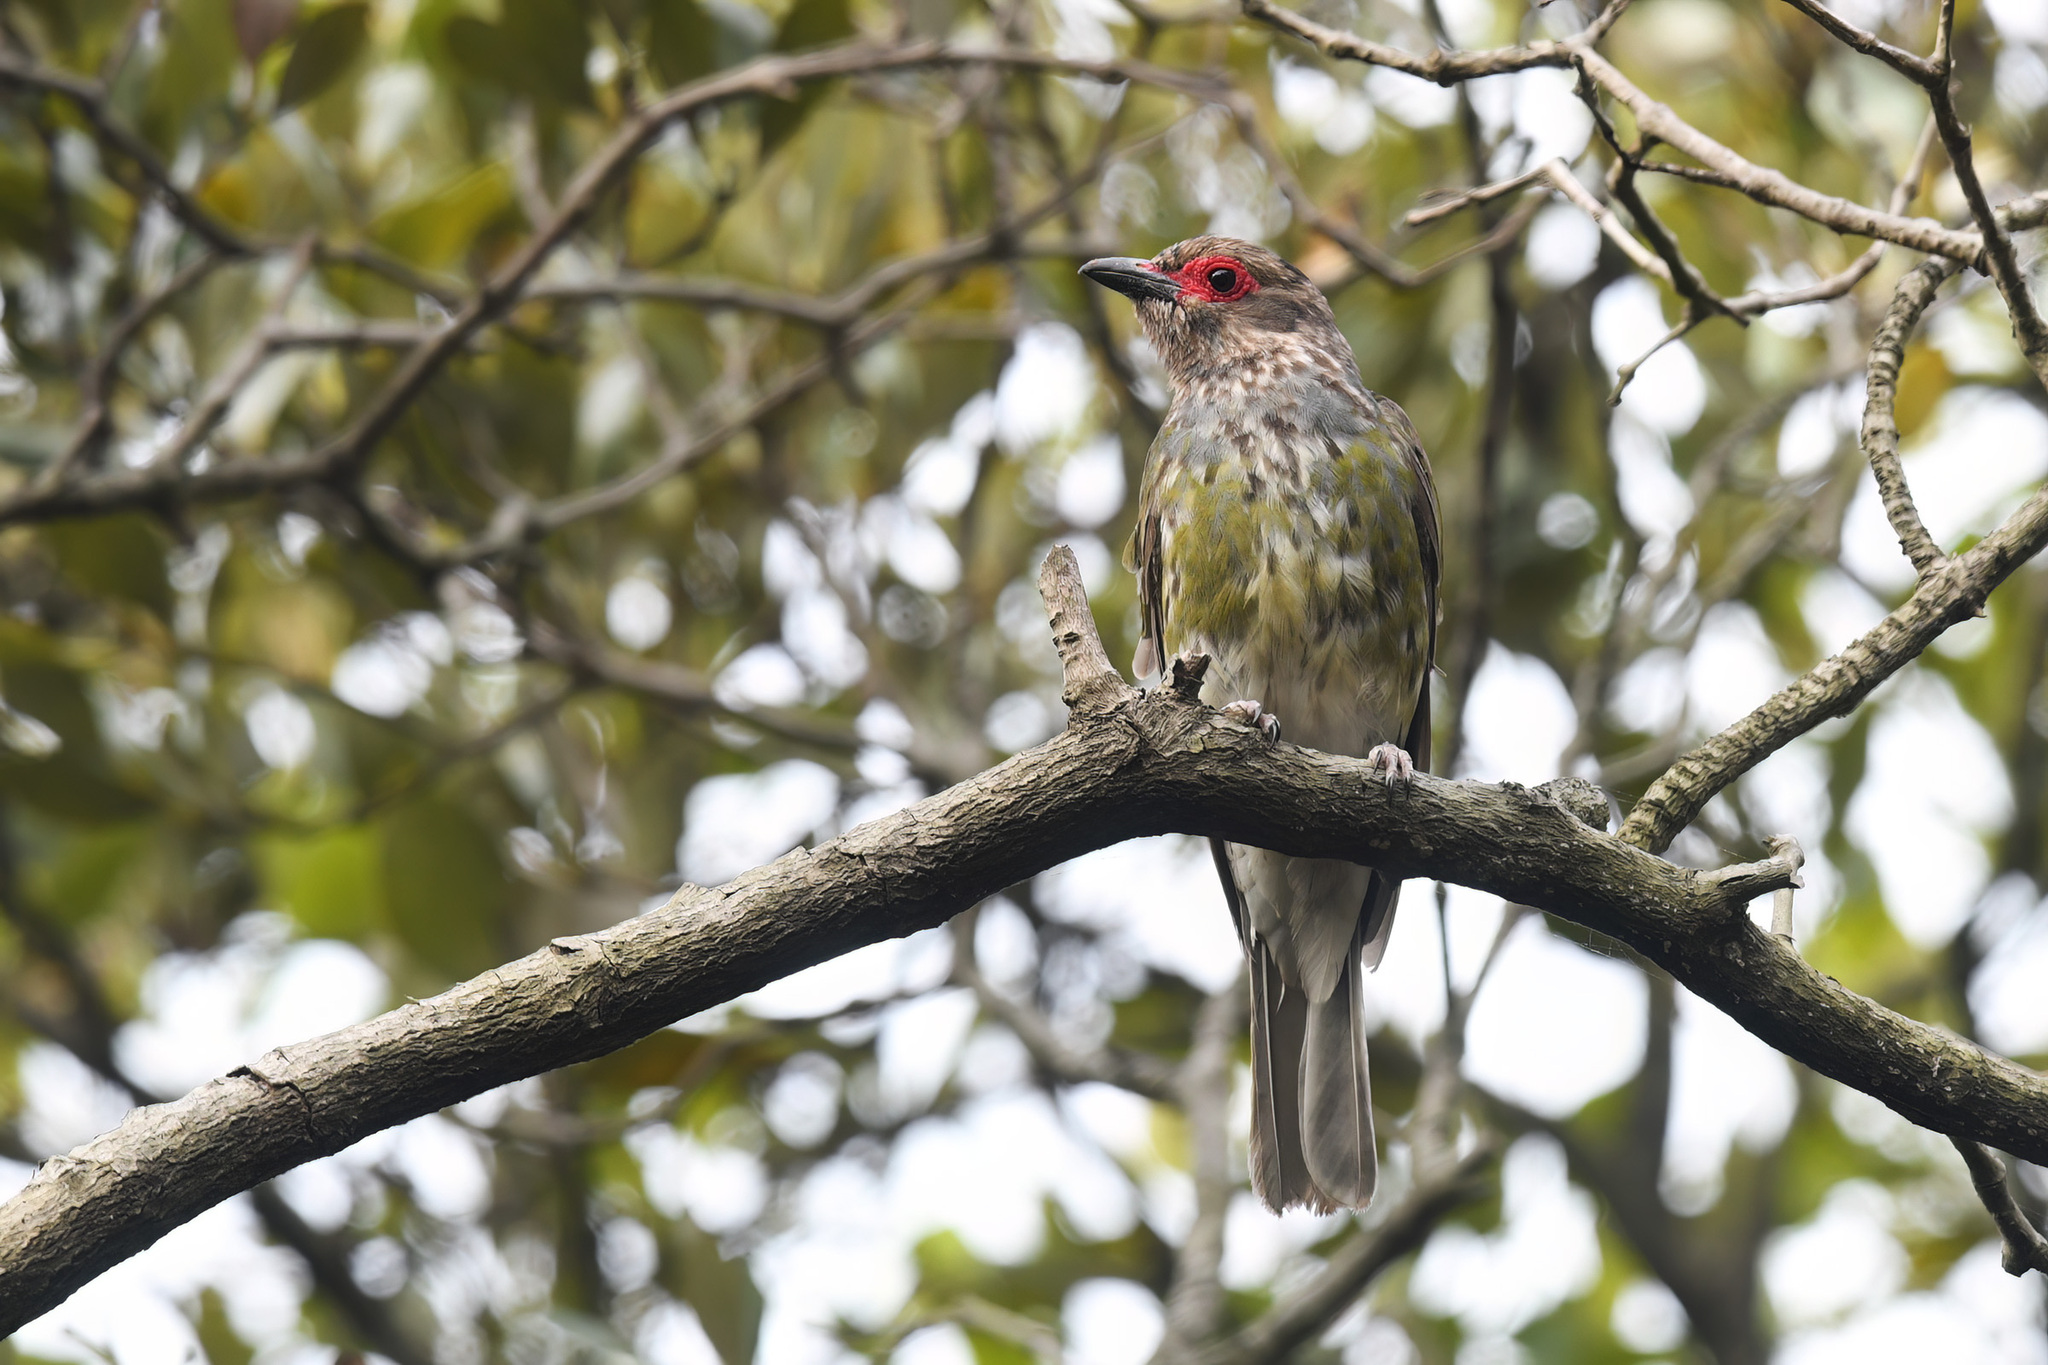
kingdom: Animalia
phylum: Chordata
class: Aves
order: Passeriformes
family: Oriolidae
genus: Sphecotheres
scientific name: Sphecotheres vieilloti
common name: Australasian figbird
